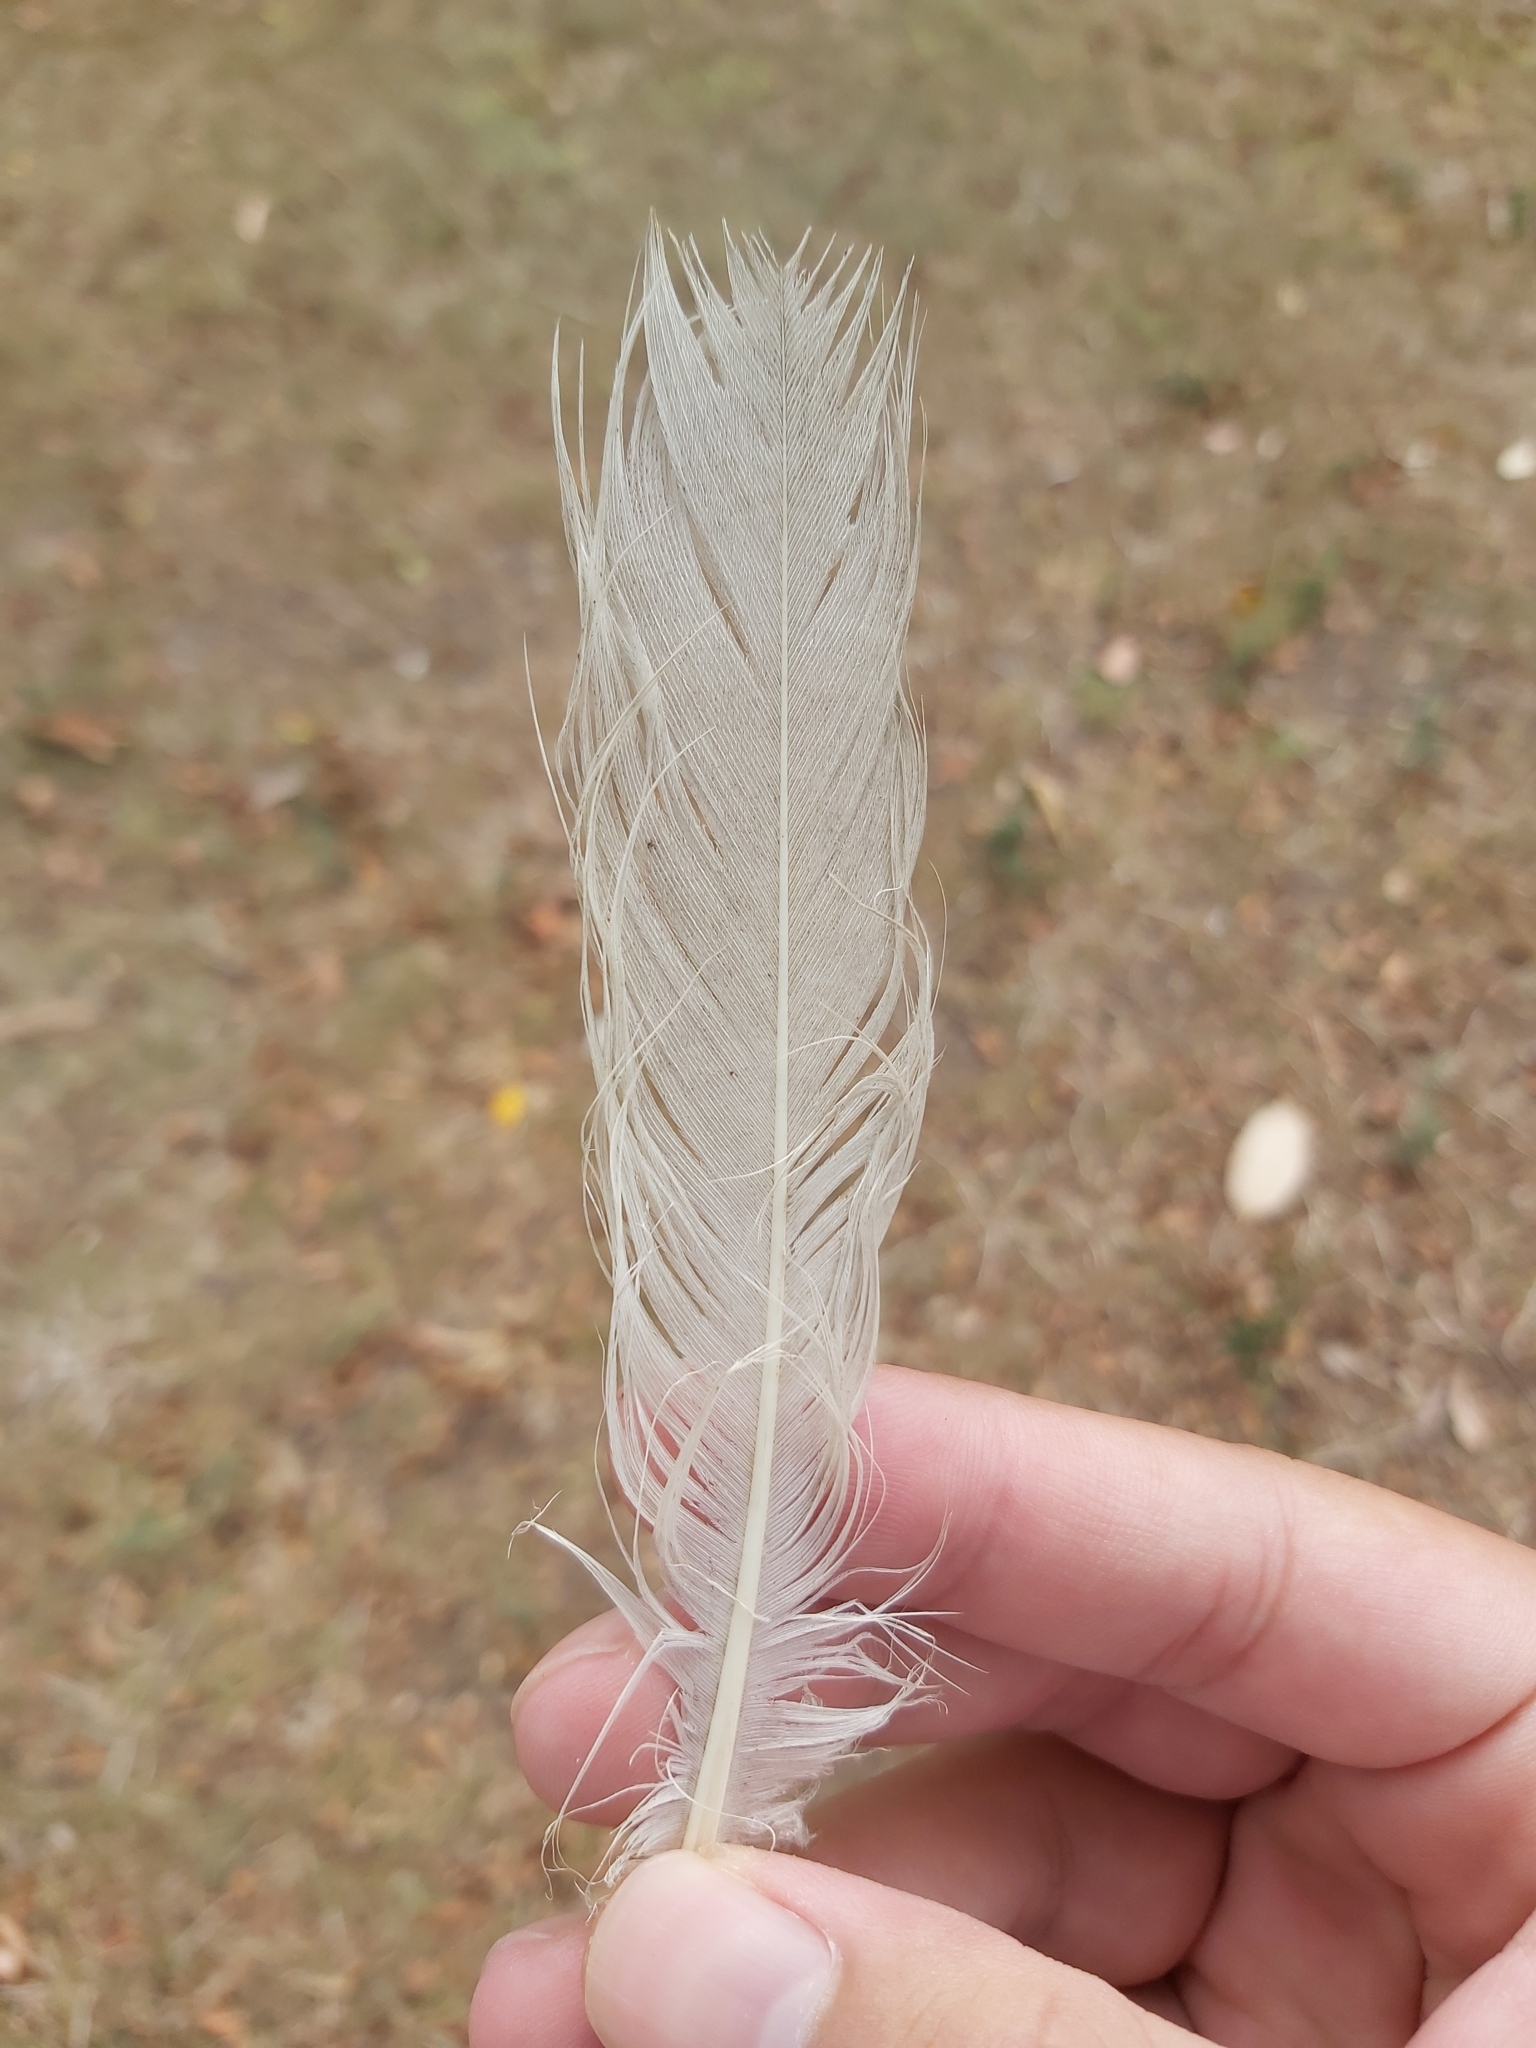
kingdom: Animalia
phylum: Chordata
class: Aves
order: Pelecaniformes
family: Threskiornithidae
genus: Threskiornis
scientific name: Threskiornis molucca
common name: Australian white ibis
